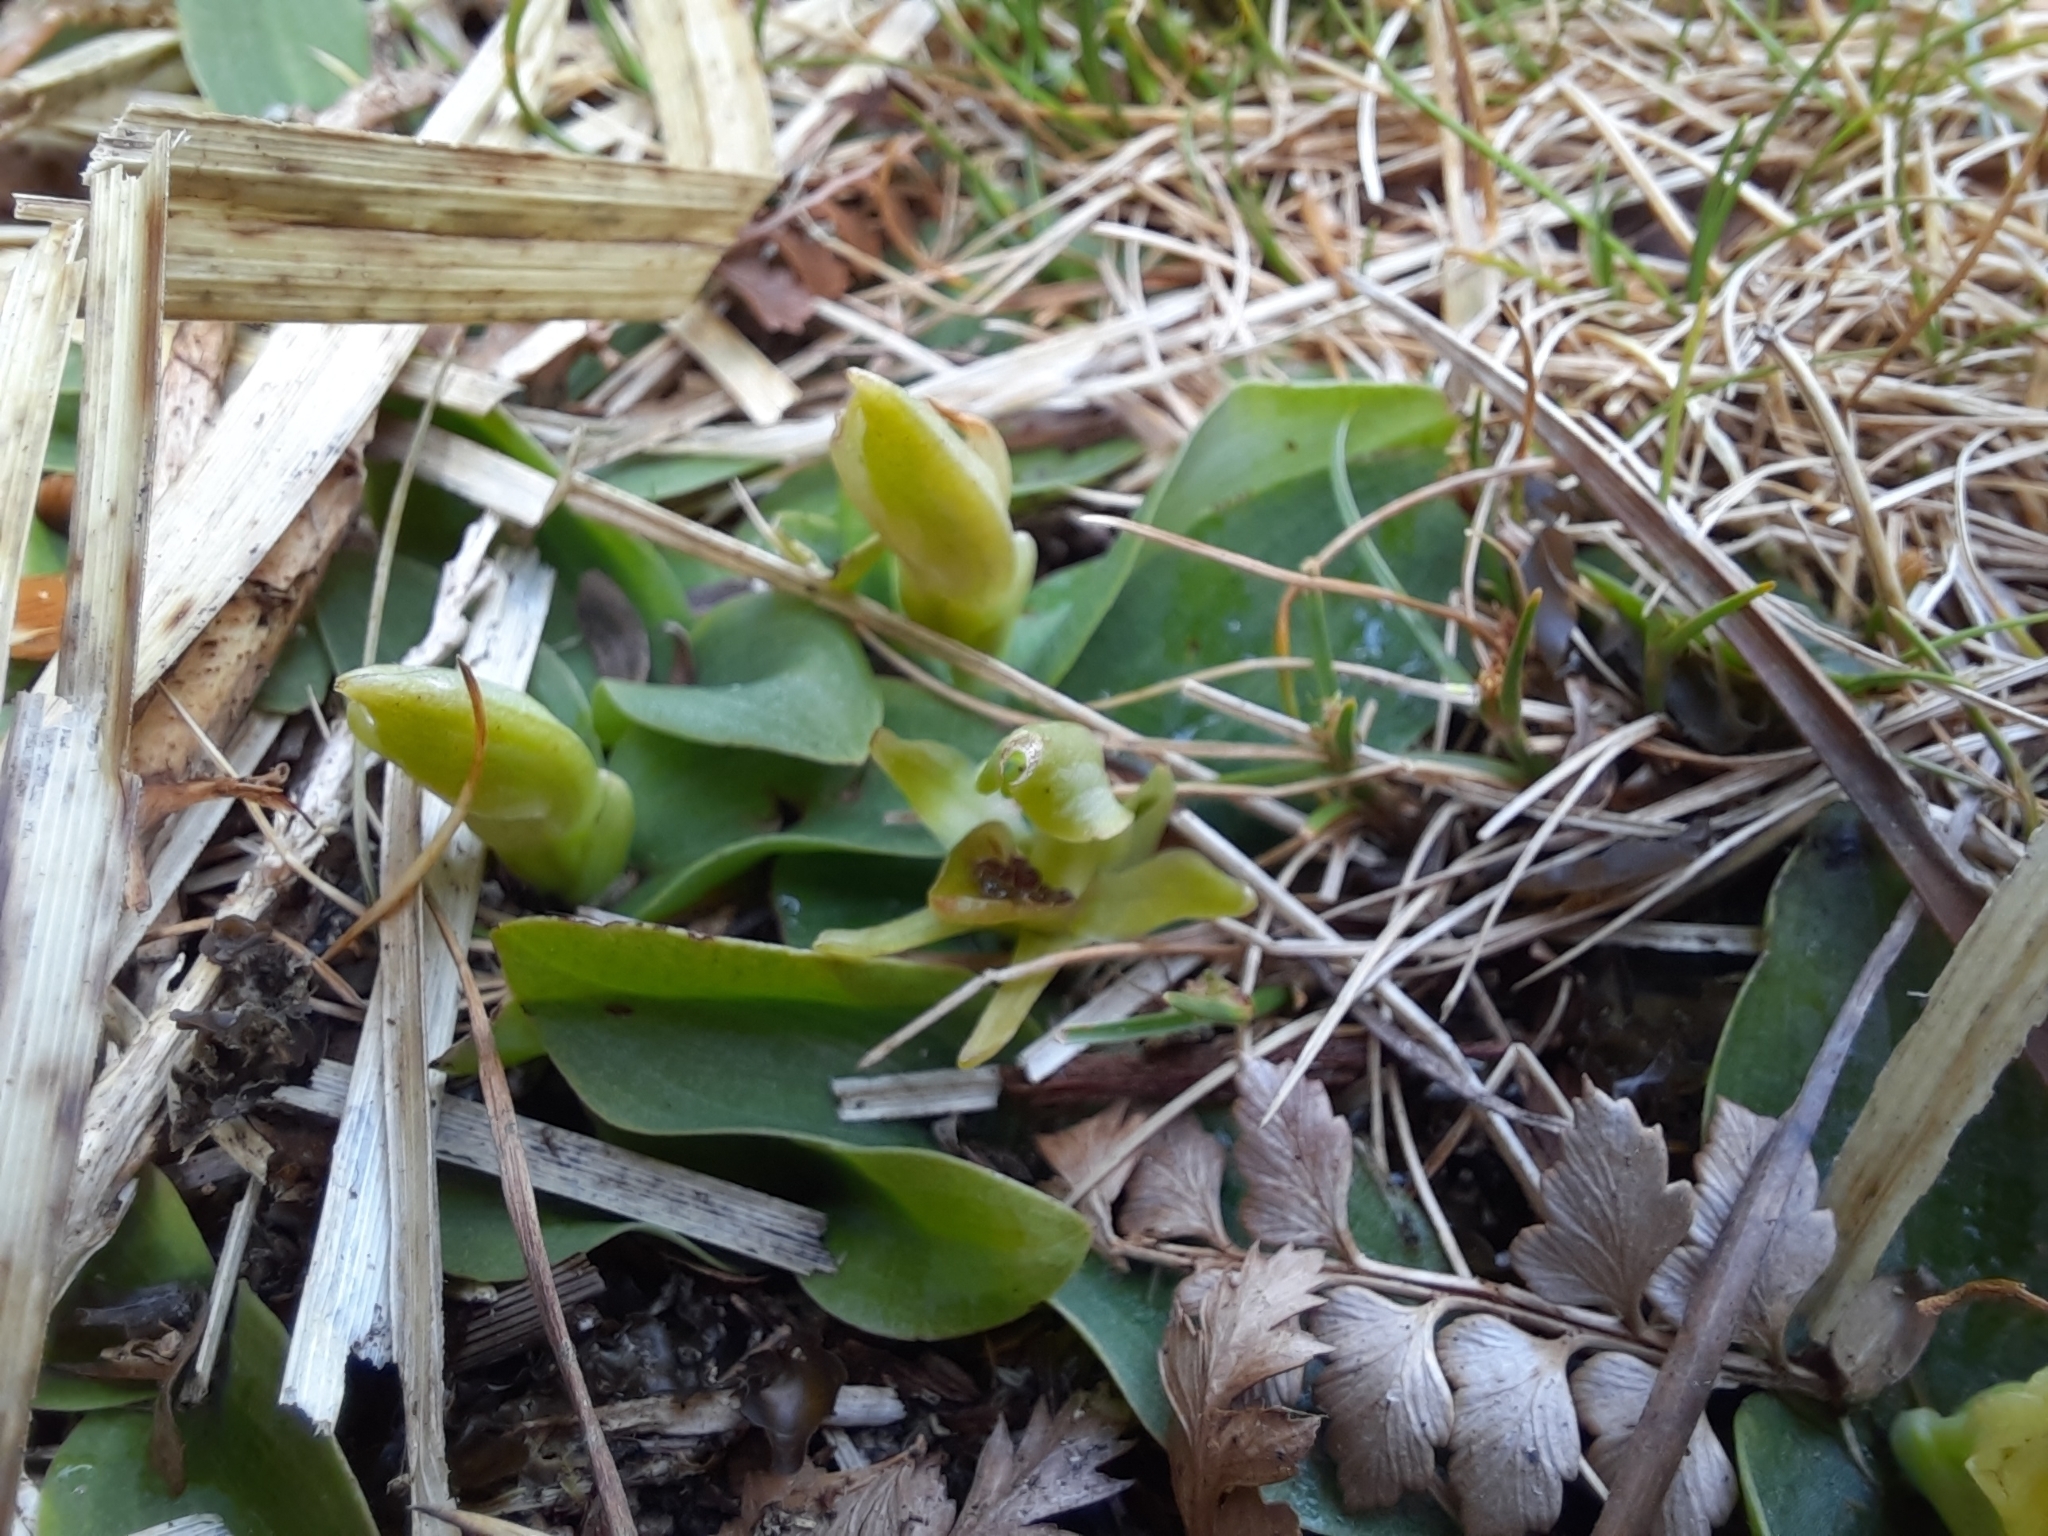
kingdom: Plantae
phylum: Tracheophyta
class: Liliopsida
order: Asparagales
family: Orchidaceae
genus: Chiloglottis
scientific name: Chiloglottis cornuta
